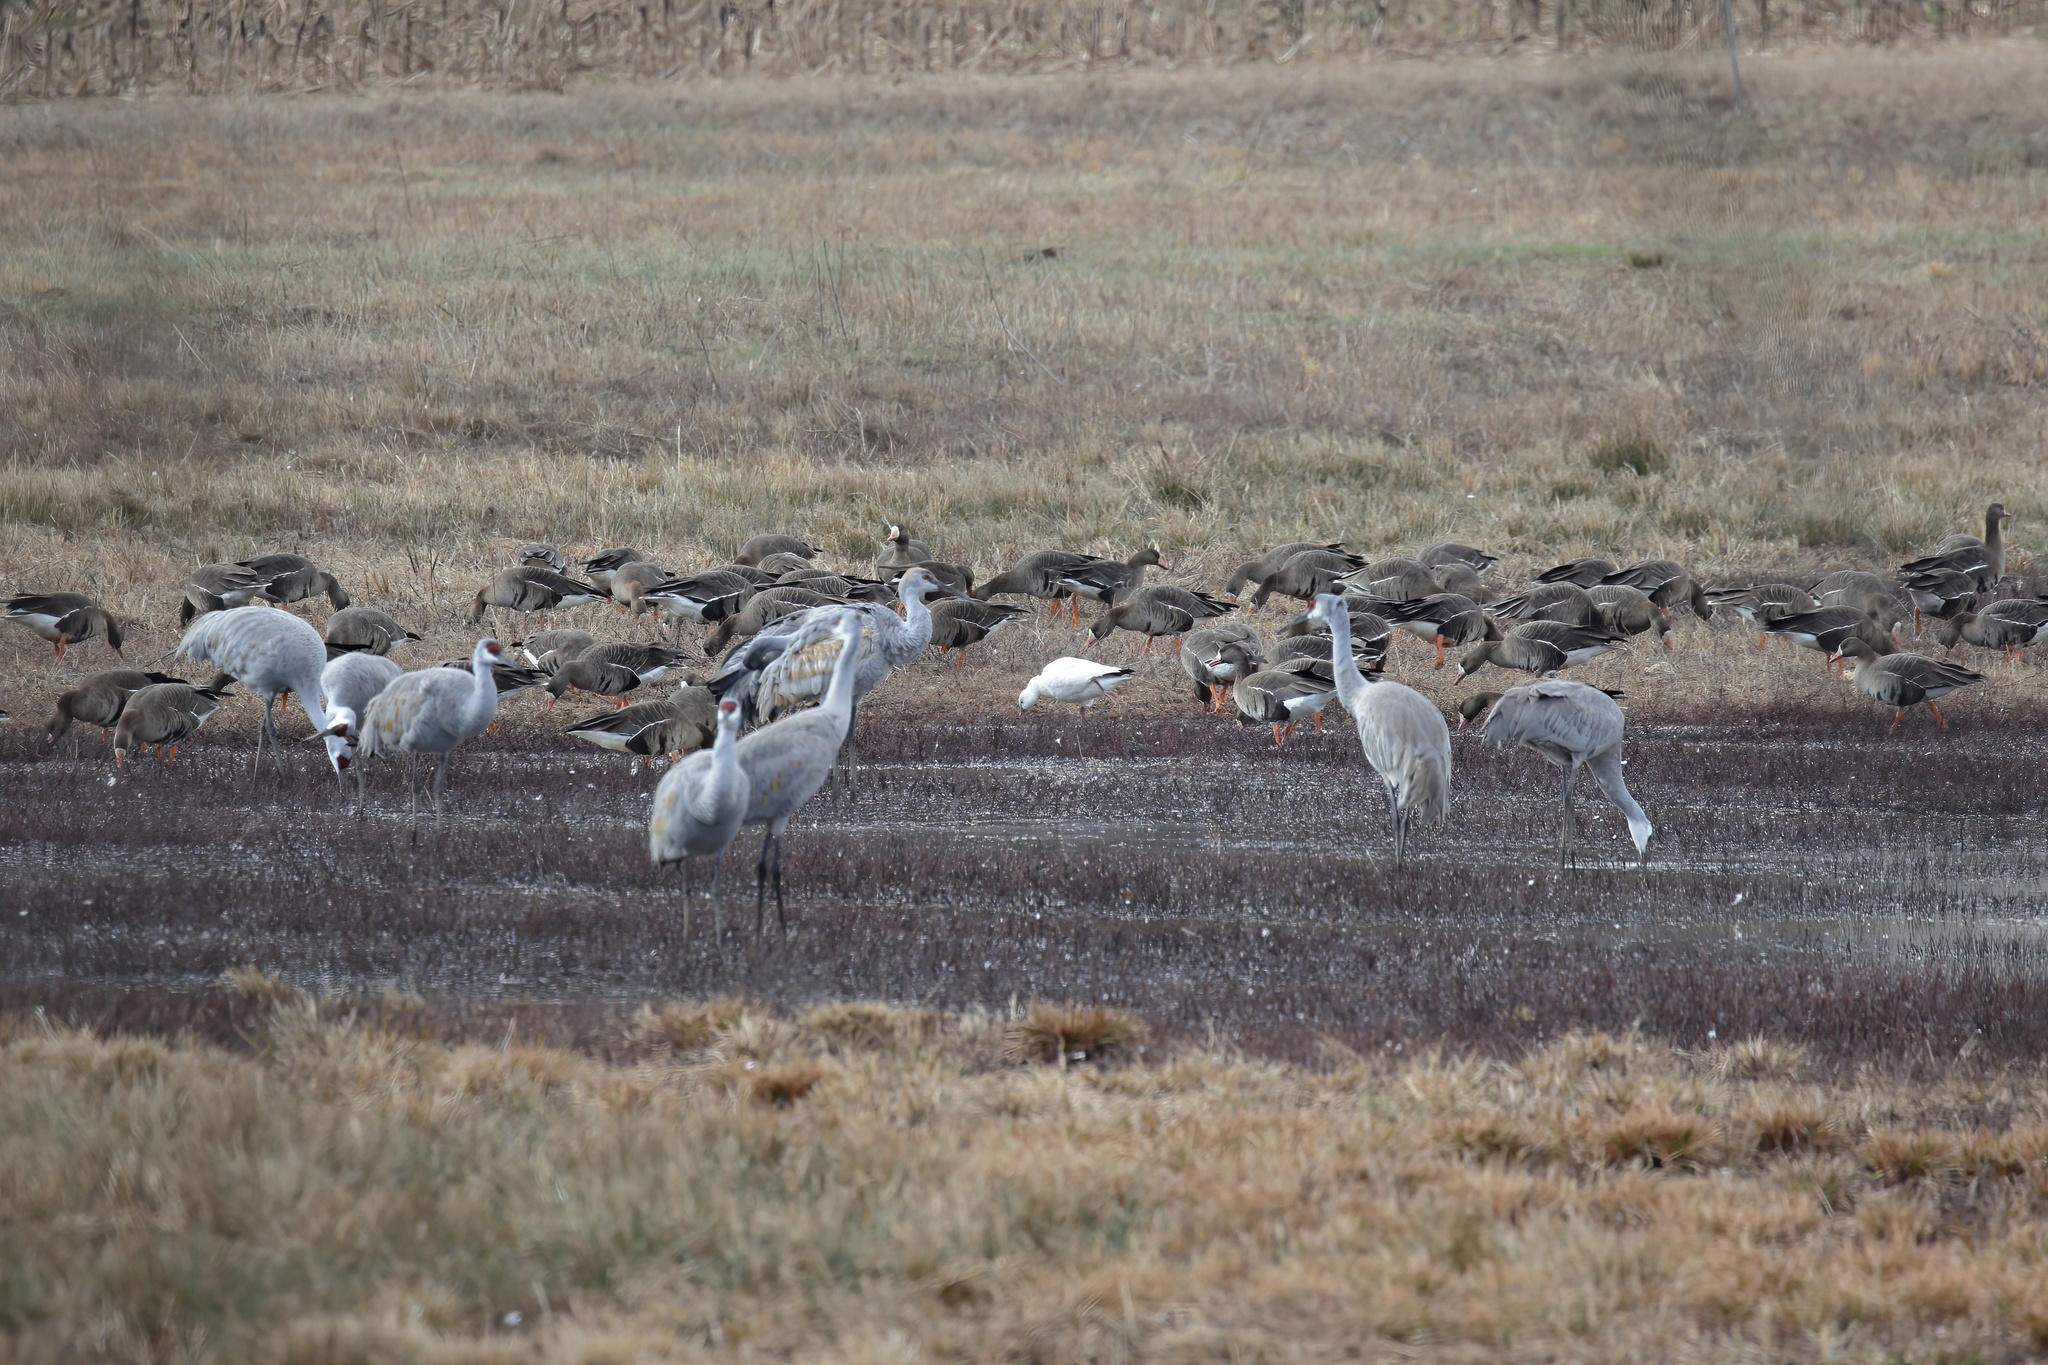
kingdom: Animalia
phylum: Chordata
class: Aves
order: Anseriformes
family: Anatidae
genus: Anser
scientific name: Anser caerulescens
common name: Snow goose
